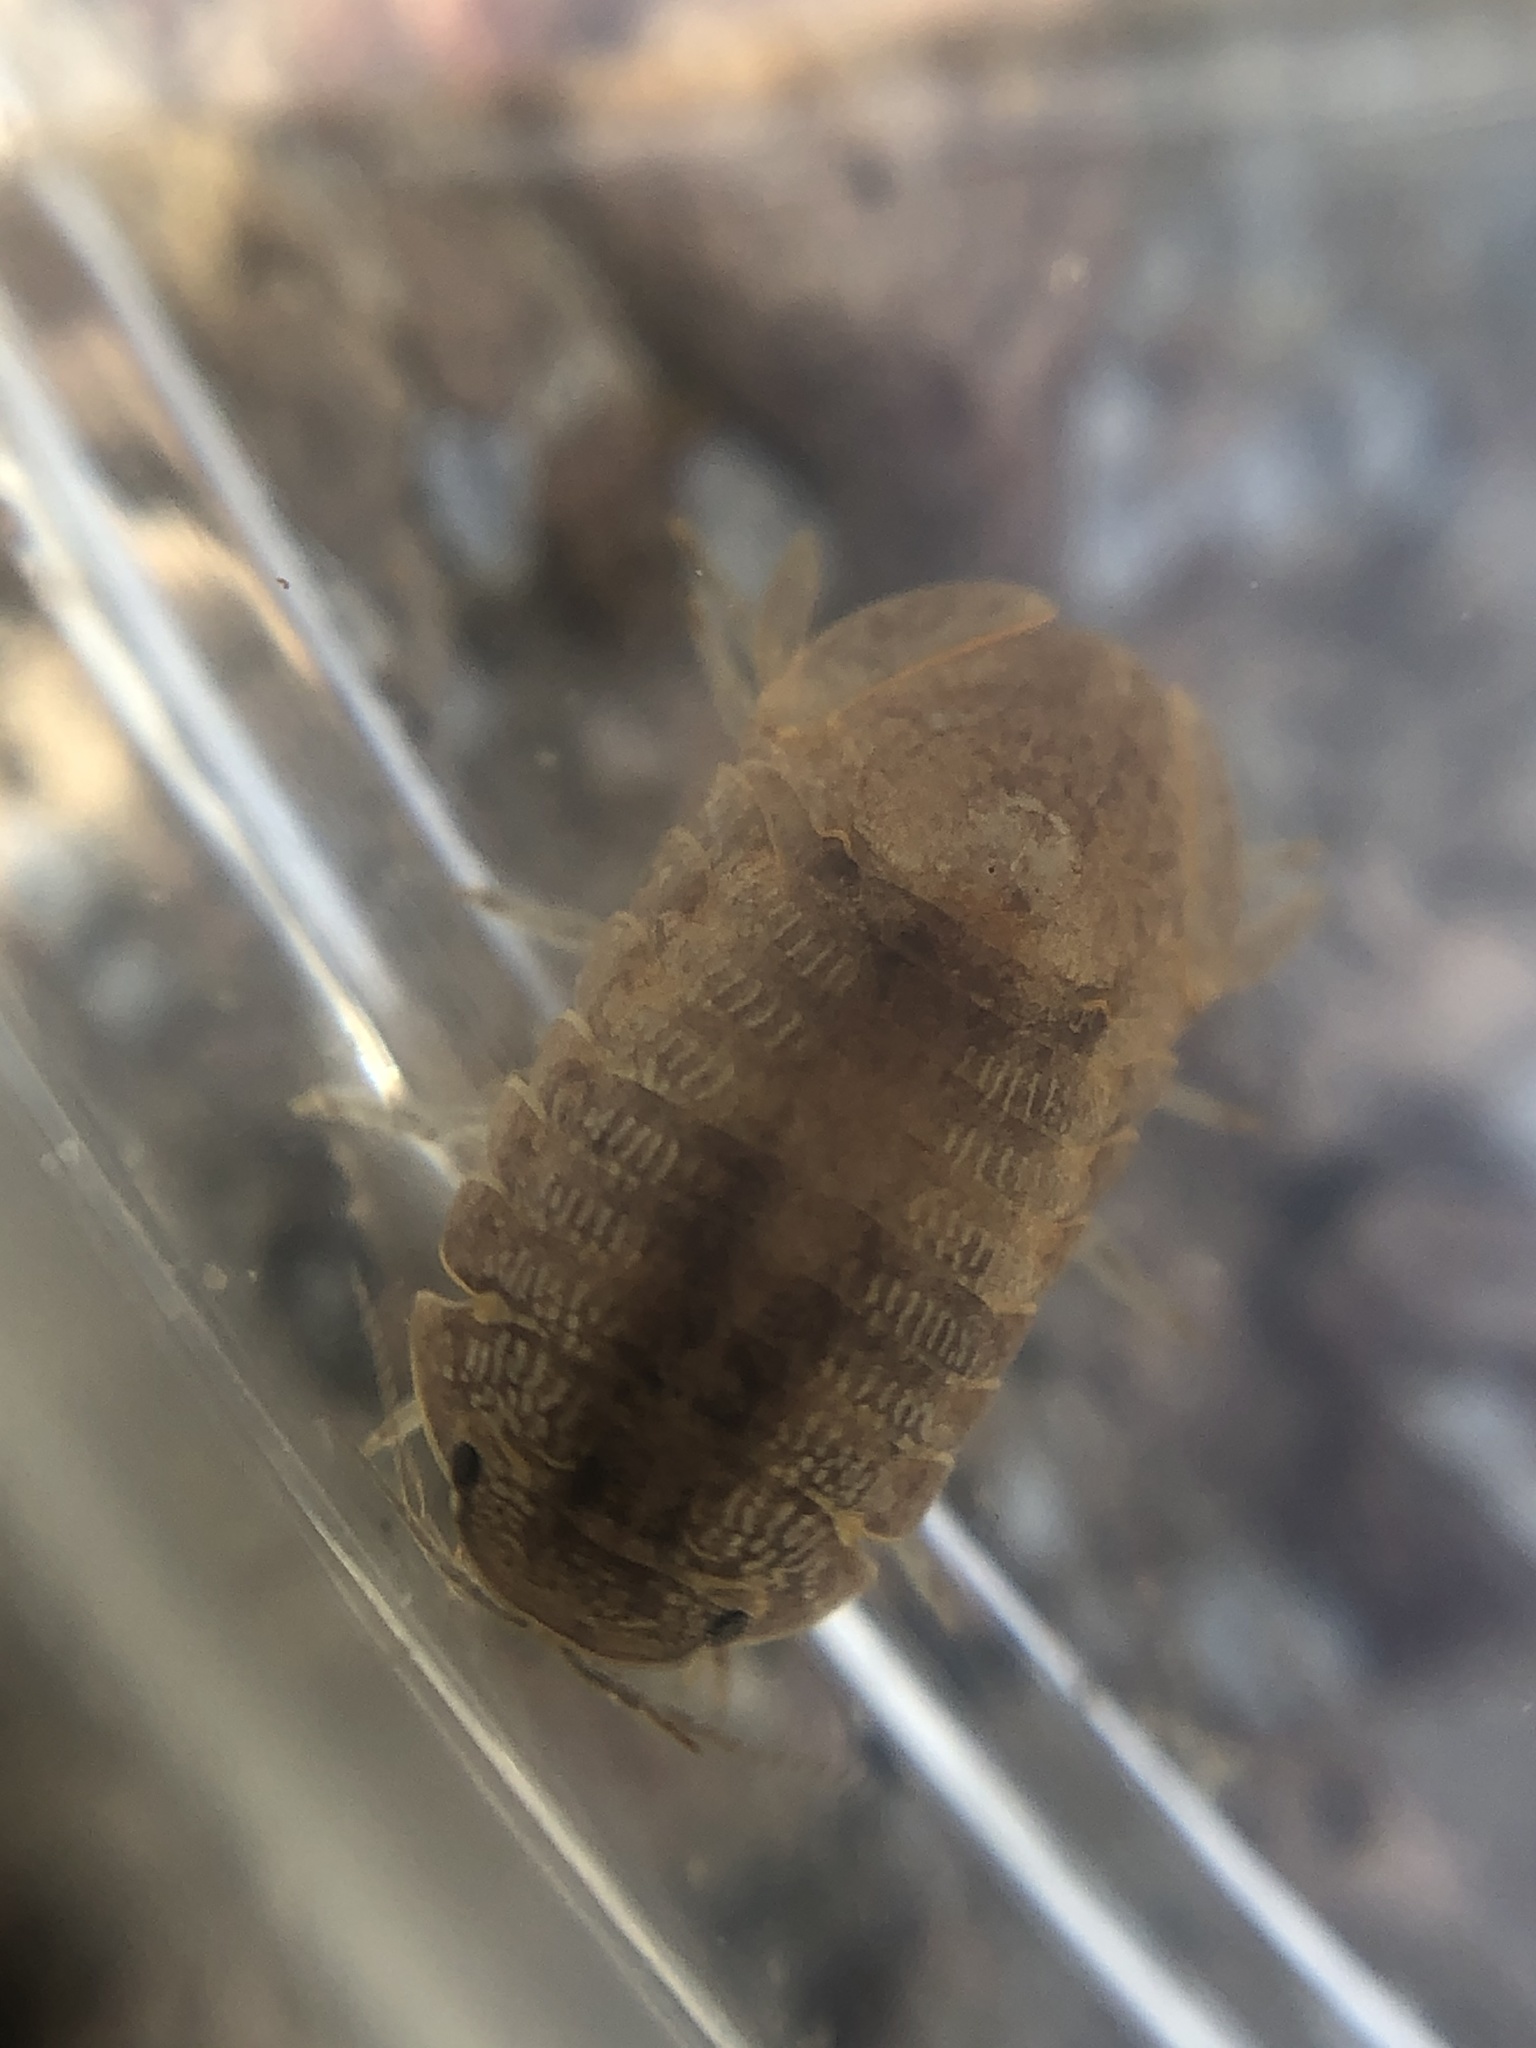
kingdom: Animalia
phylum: Arthropoda
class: Malacostraca
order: Isopoda
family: Sphaeromatidae
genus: Thermosphaeroma
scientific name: Thermosphaeroma thermophilum
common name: Socorro isopod
